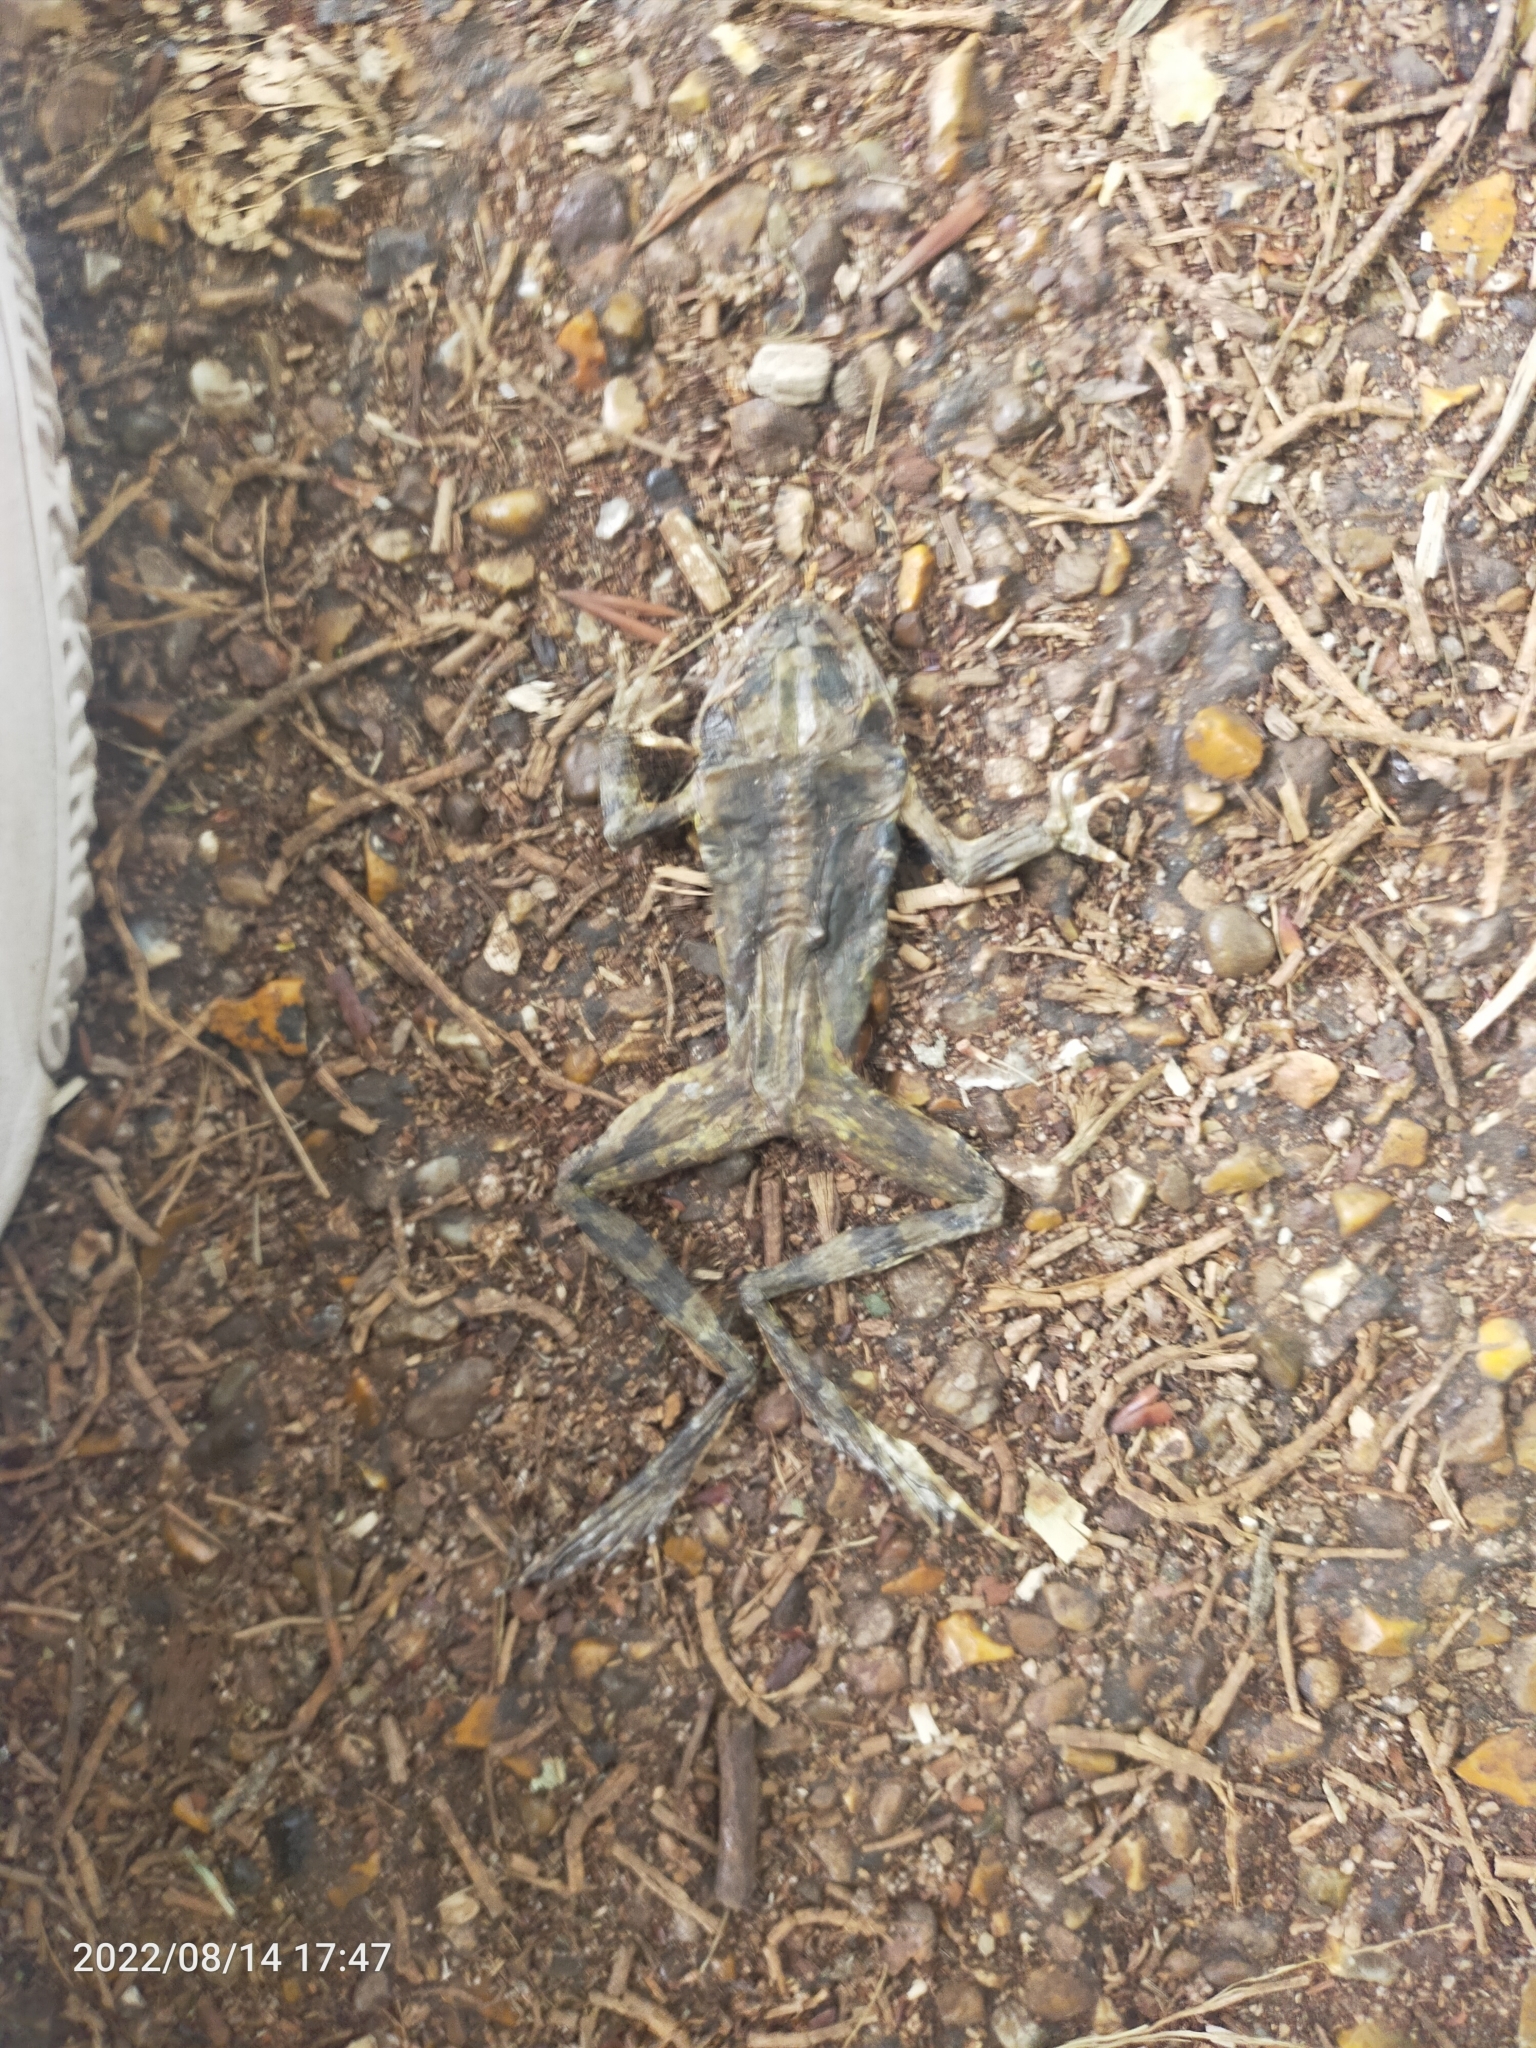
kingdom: Animalia
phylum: Chordata
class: Amphibia
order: Anura
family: Ranidae
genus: Rana
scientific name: Rana temporaria
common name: Common frog
